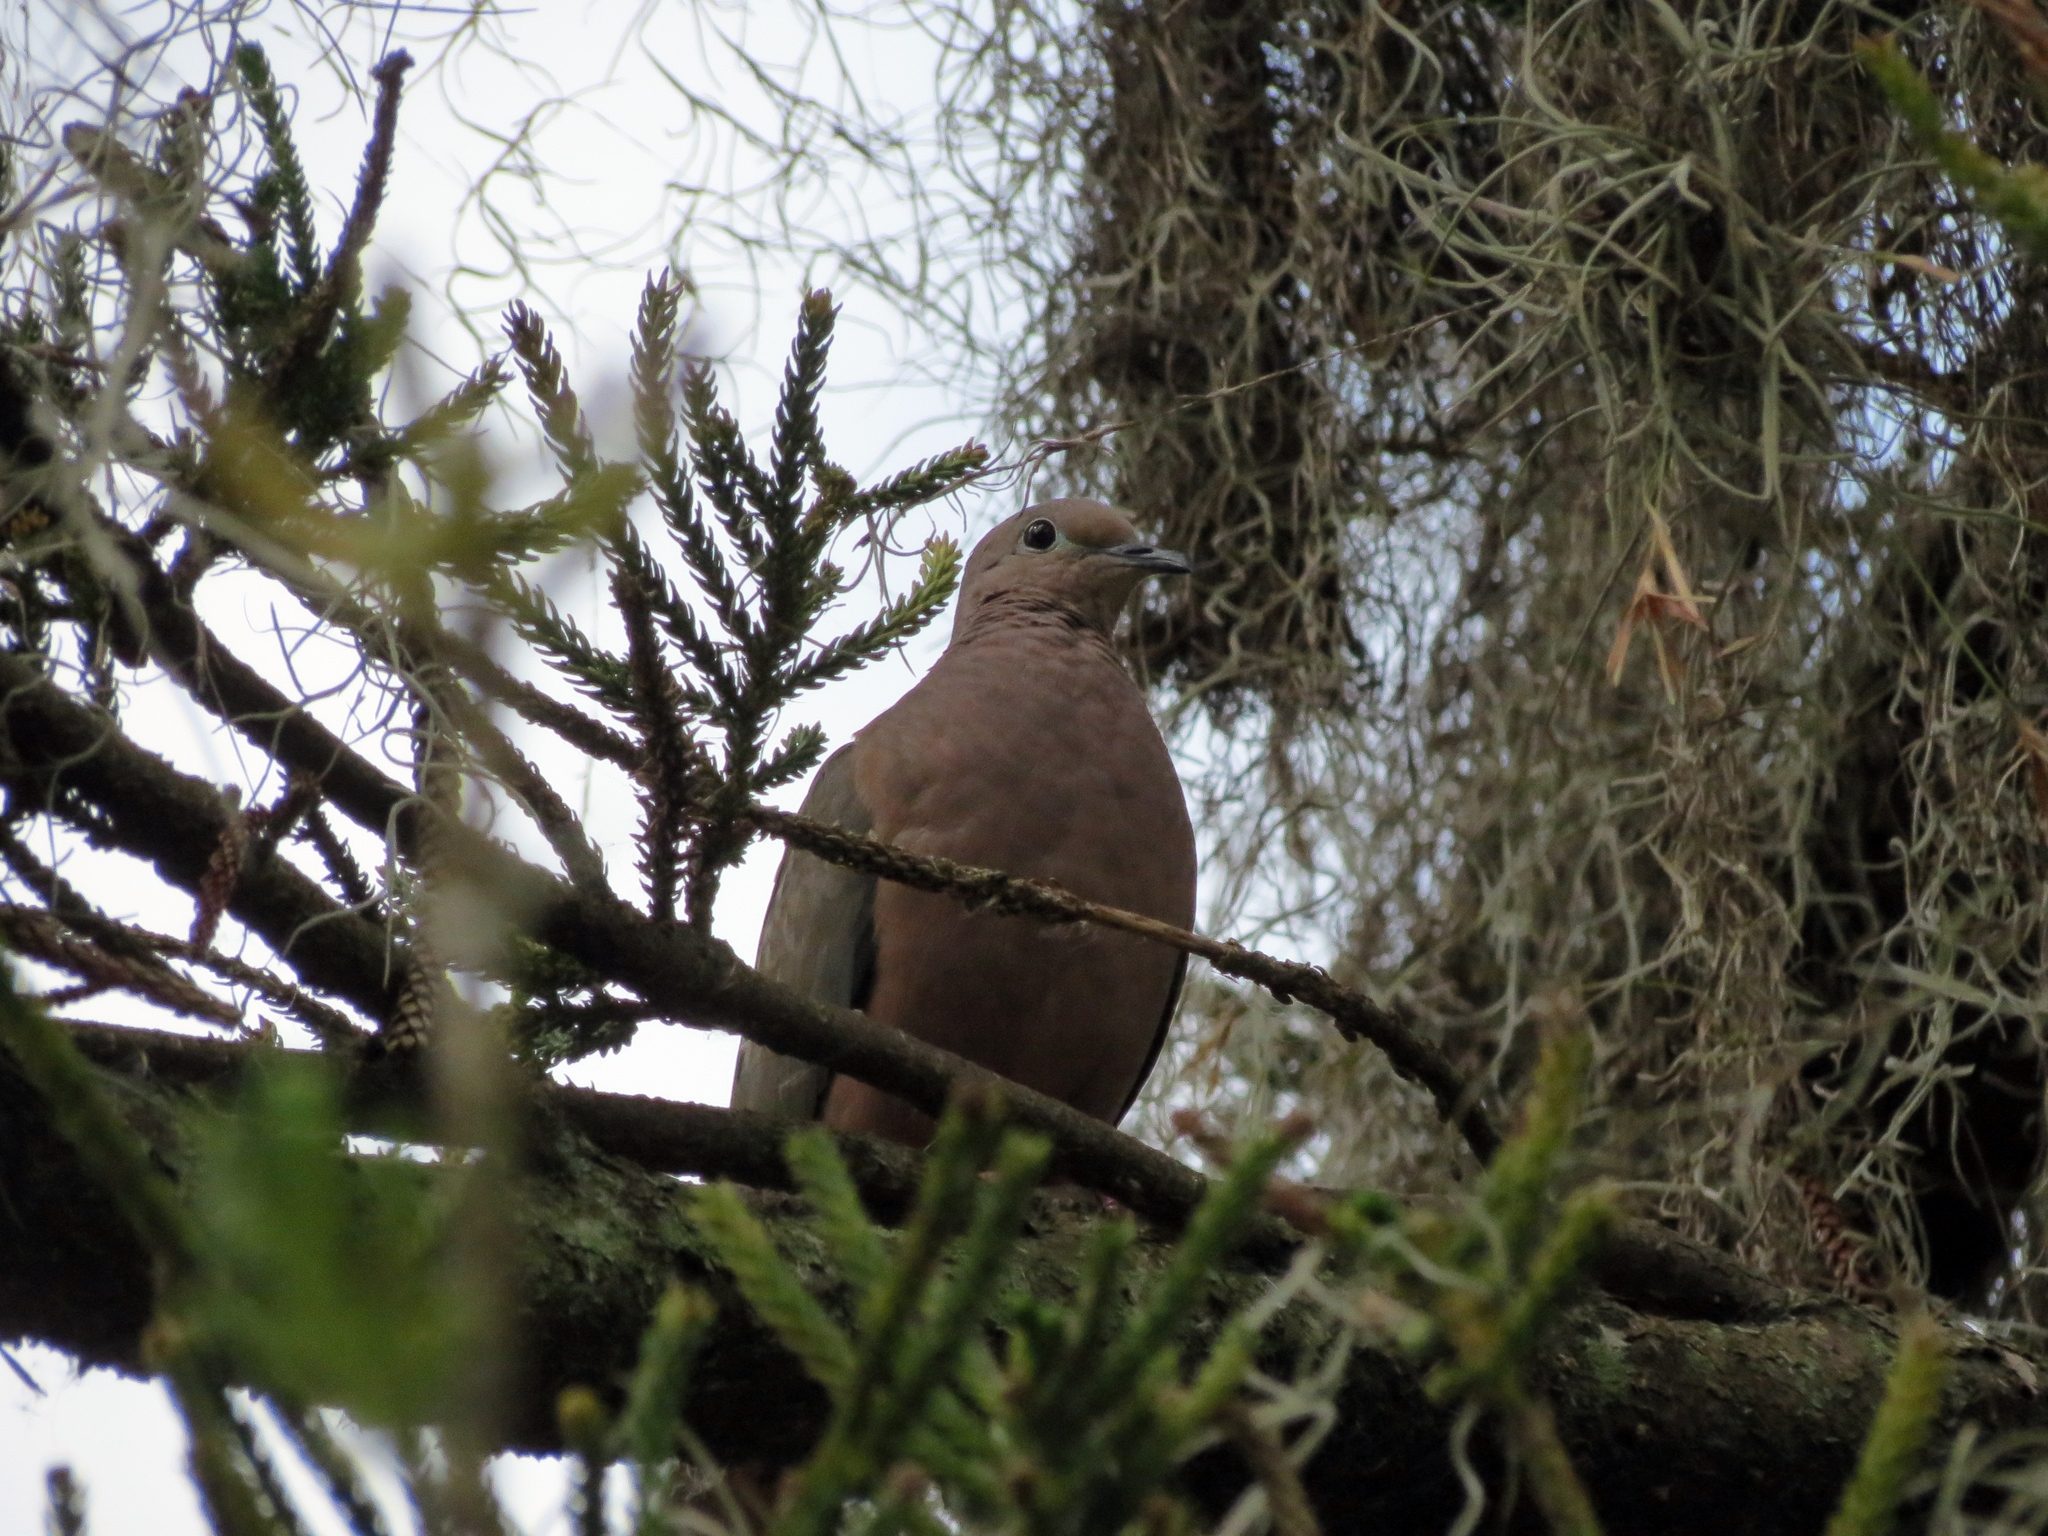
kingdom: Animalia
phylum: Chordata
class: Aves
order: Columbiformes
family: Columbidae
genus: Zenaida
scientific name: Zenaida auriculata
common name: Eared dove
